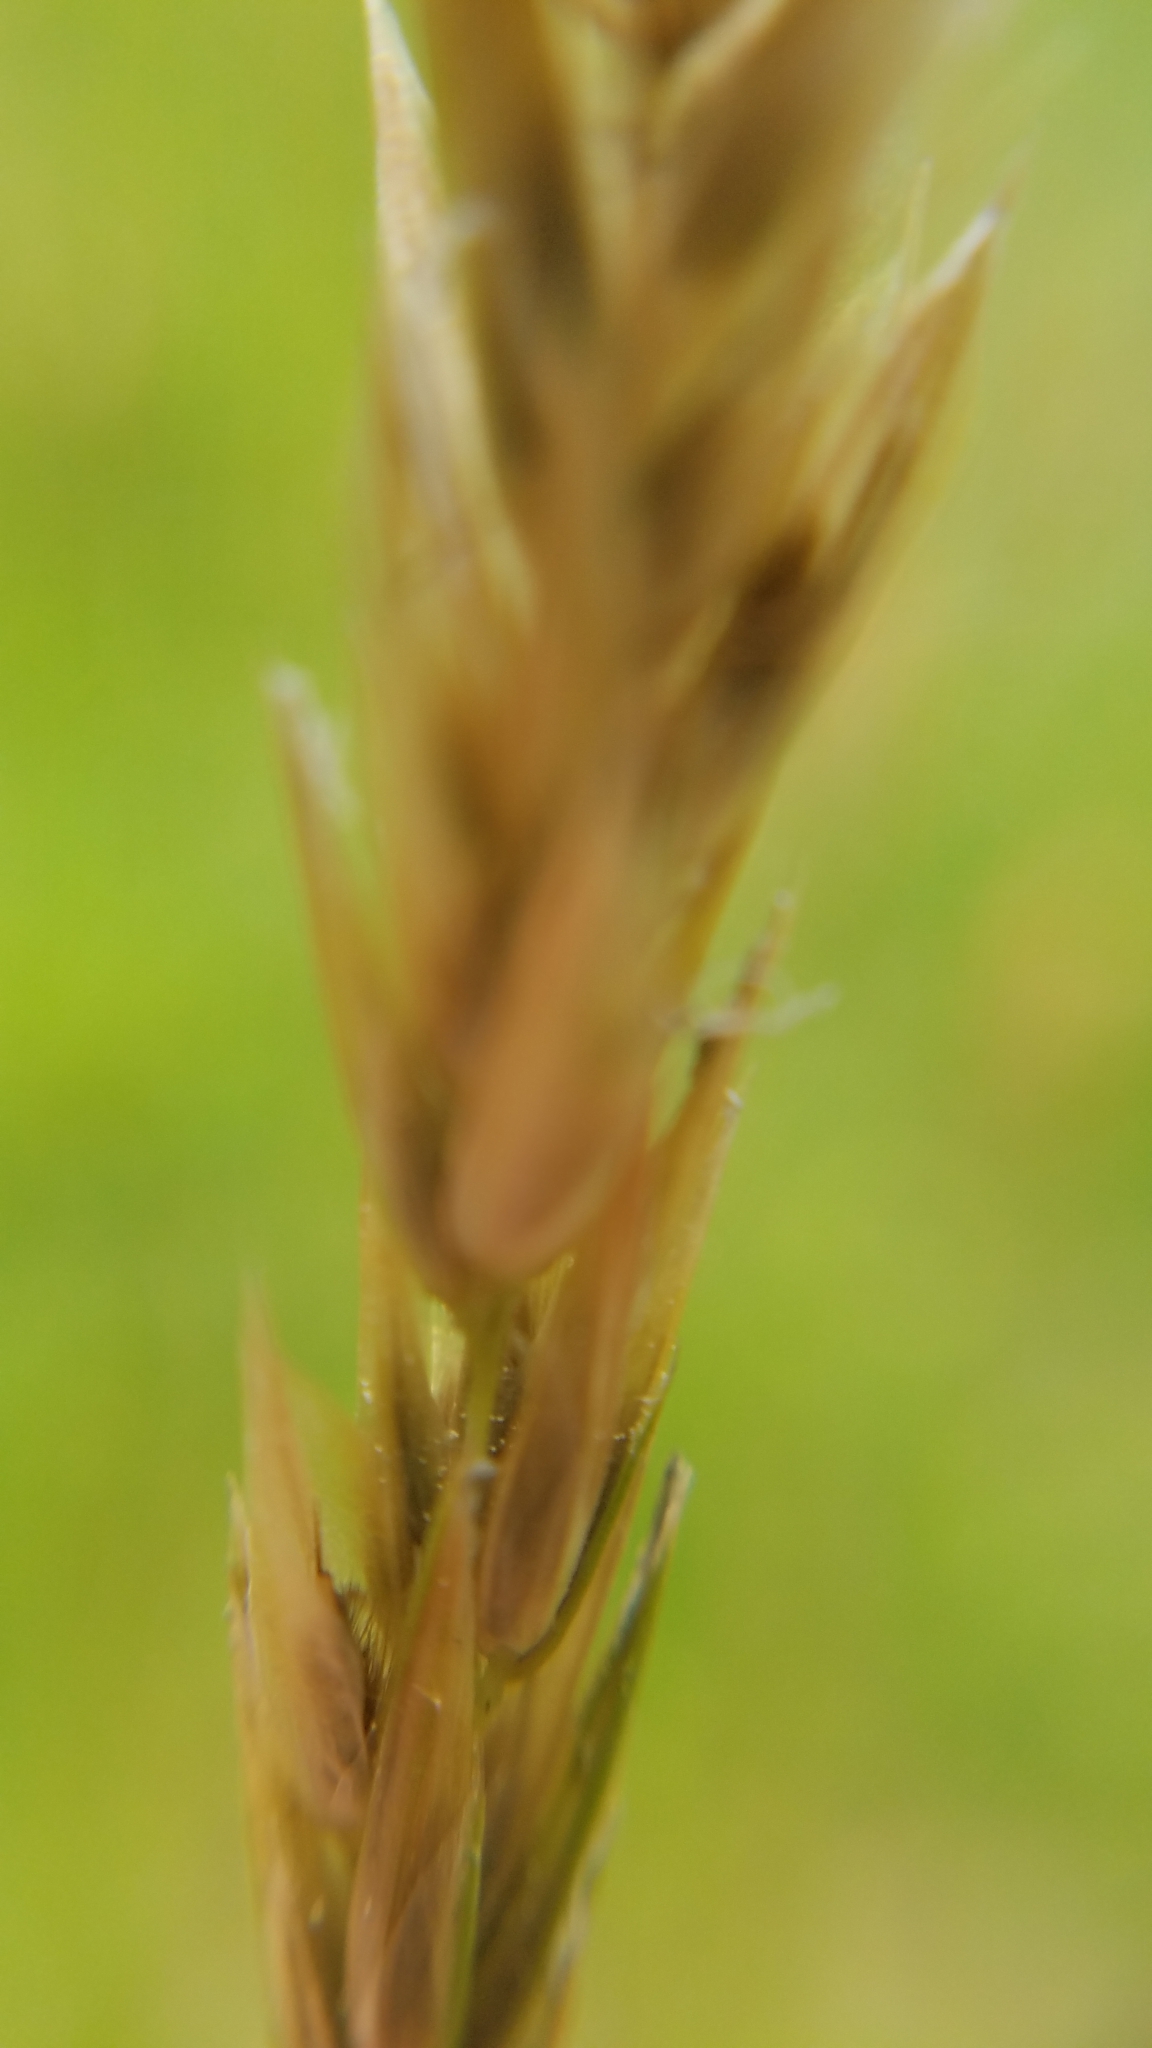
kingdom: Plantae
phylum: Tracheophyta
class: Liliopsida
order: Poales
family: Poaceae
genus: Anthoxanthum
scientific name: Anthoxanthum odoratum
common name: Sweet vernalgrass
